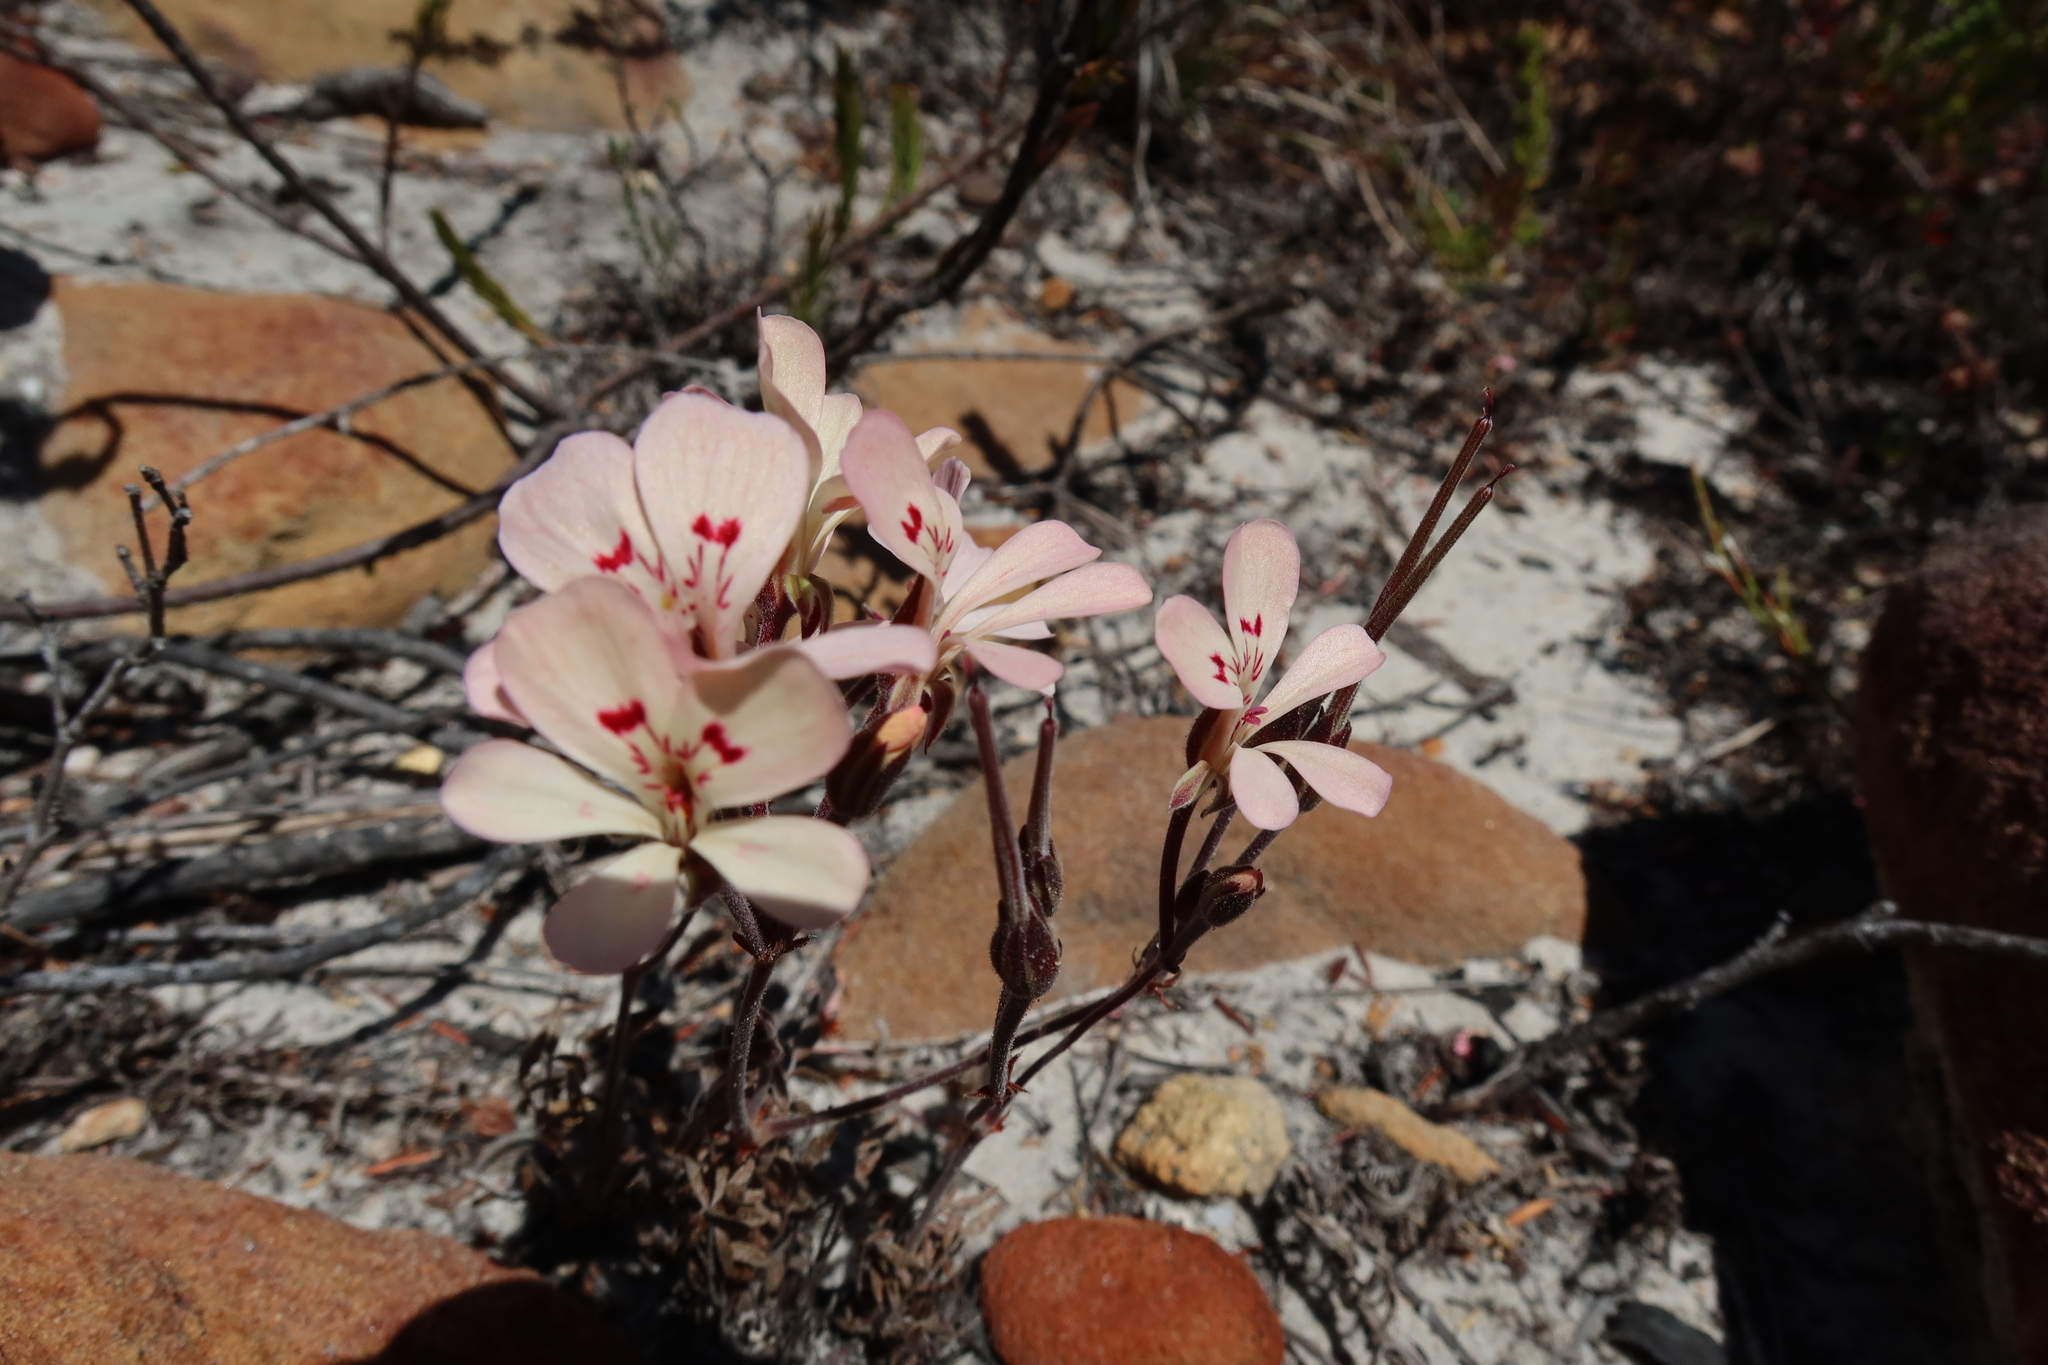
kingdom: Plantae
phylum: Tracheophyta
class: Magnoliopsida
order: Geraniales
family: Geraniaceae
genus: Pelargonium
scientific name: Pelargonium pinnatum
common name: Pinnated pelargonium
